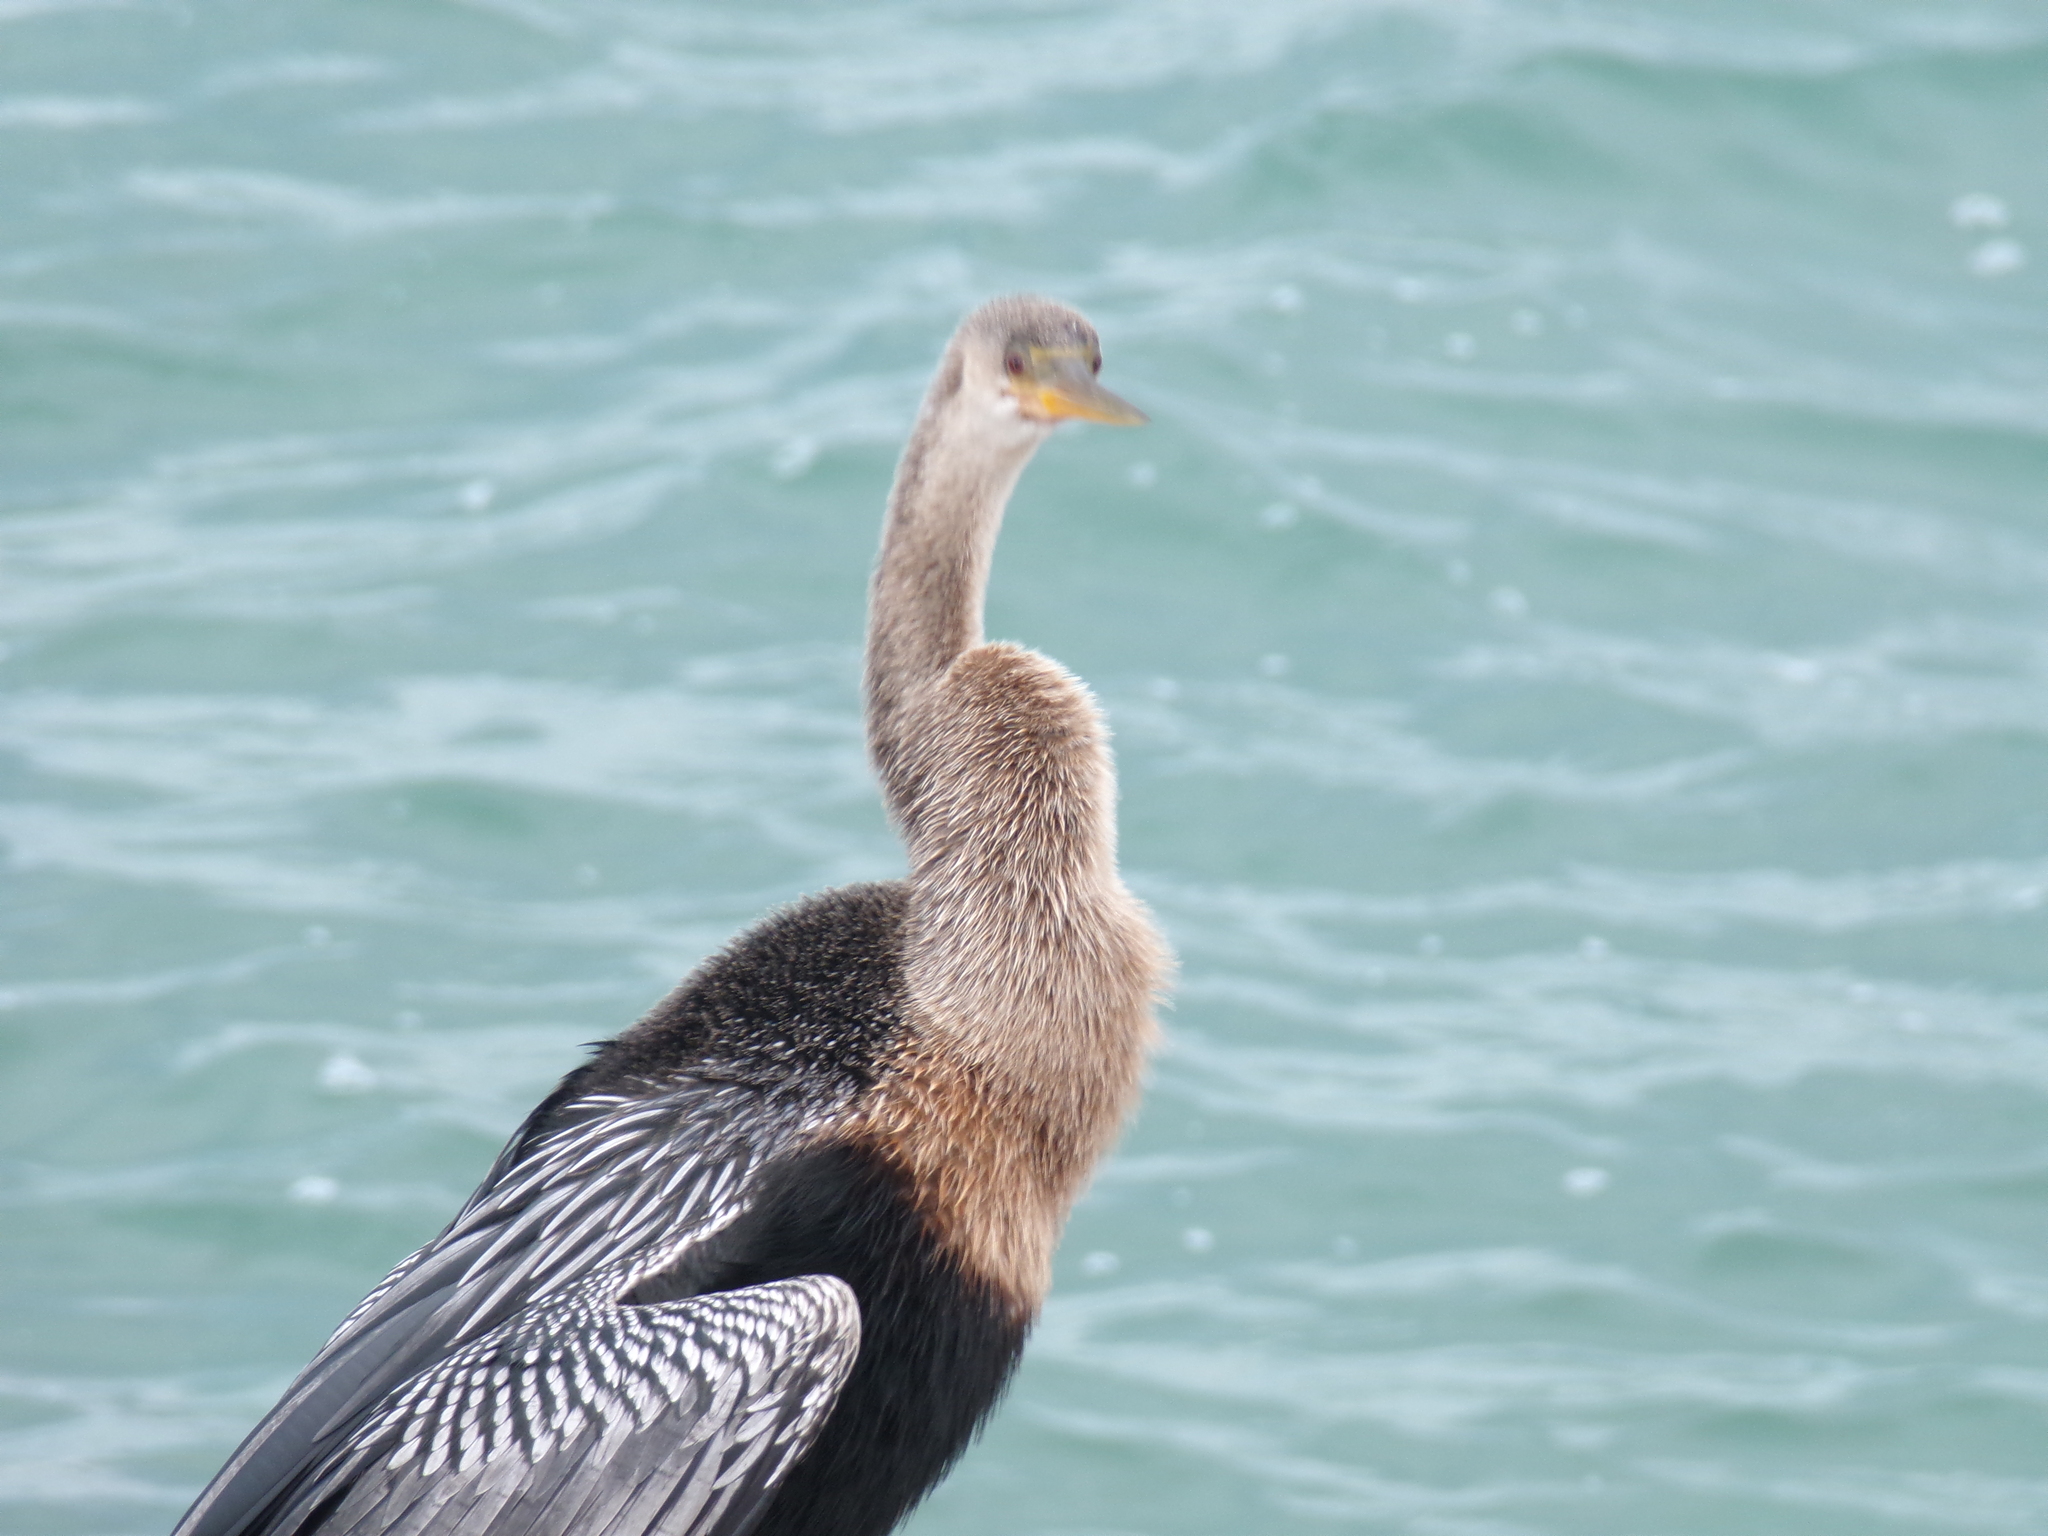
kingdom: Animalia
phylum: Chordata
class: Aves
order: Suliformes
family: Anhingidae
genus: Anhinga
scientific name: Anhinga anhinga
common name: Anhinga
